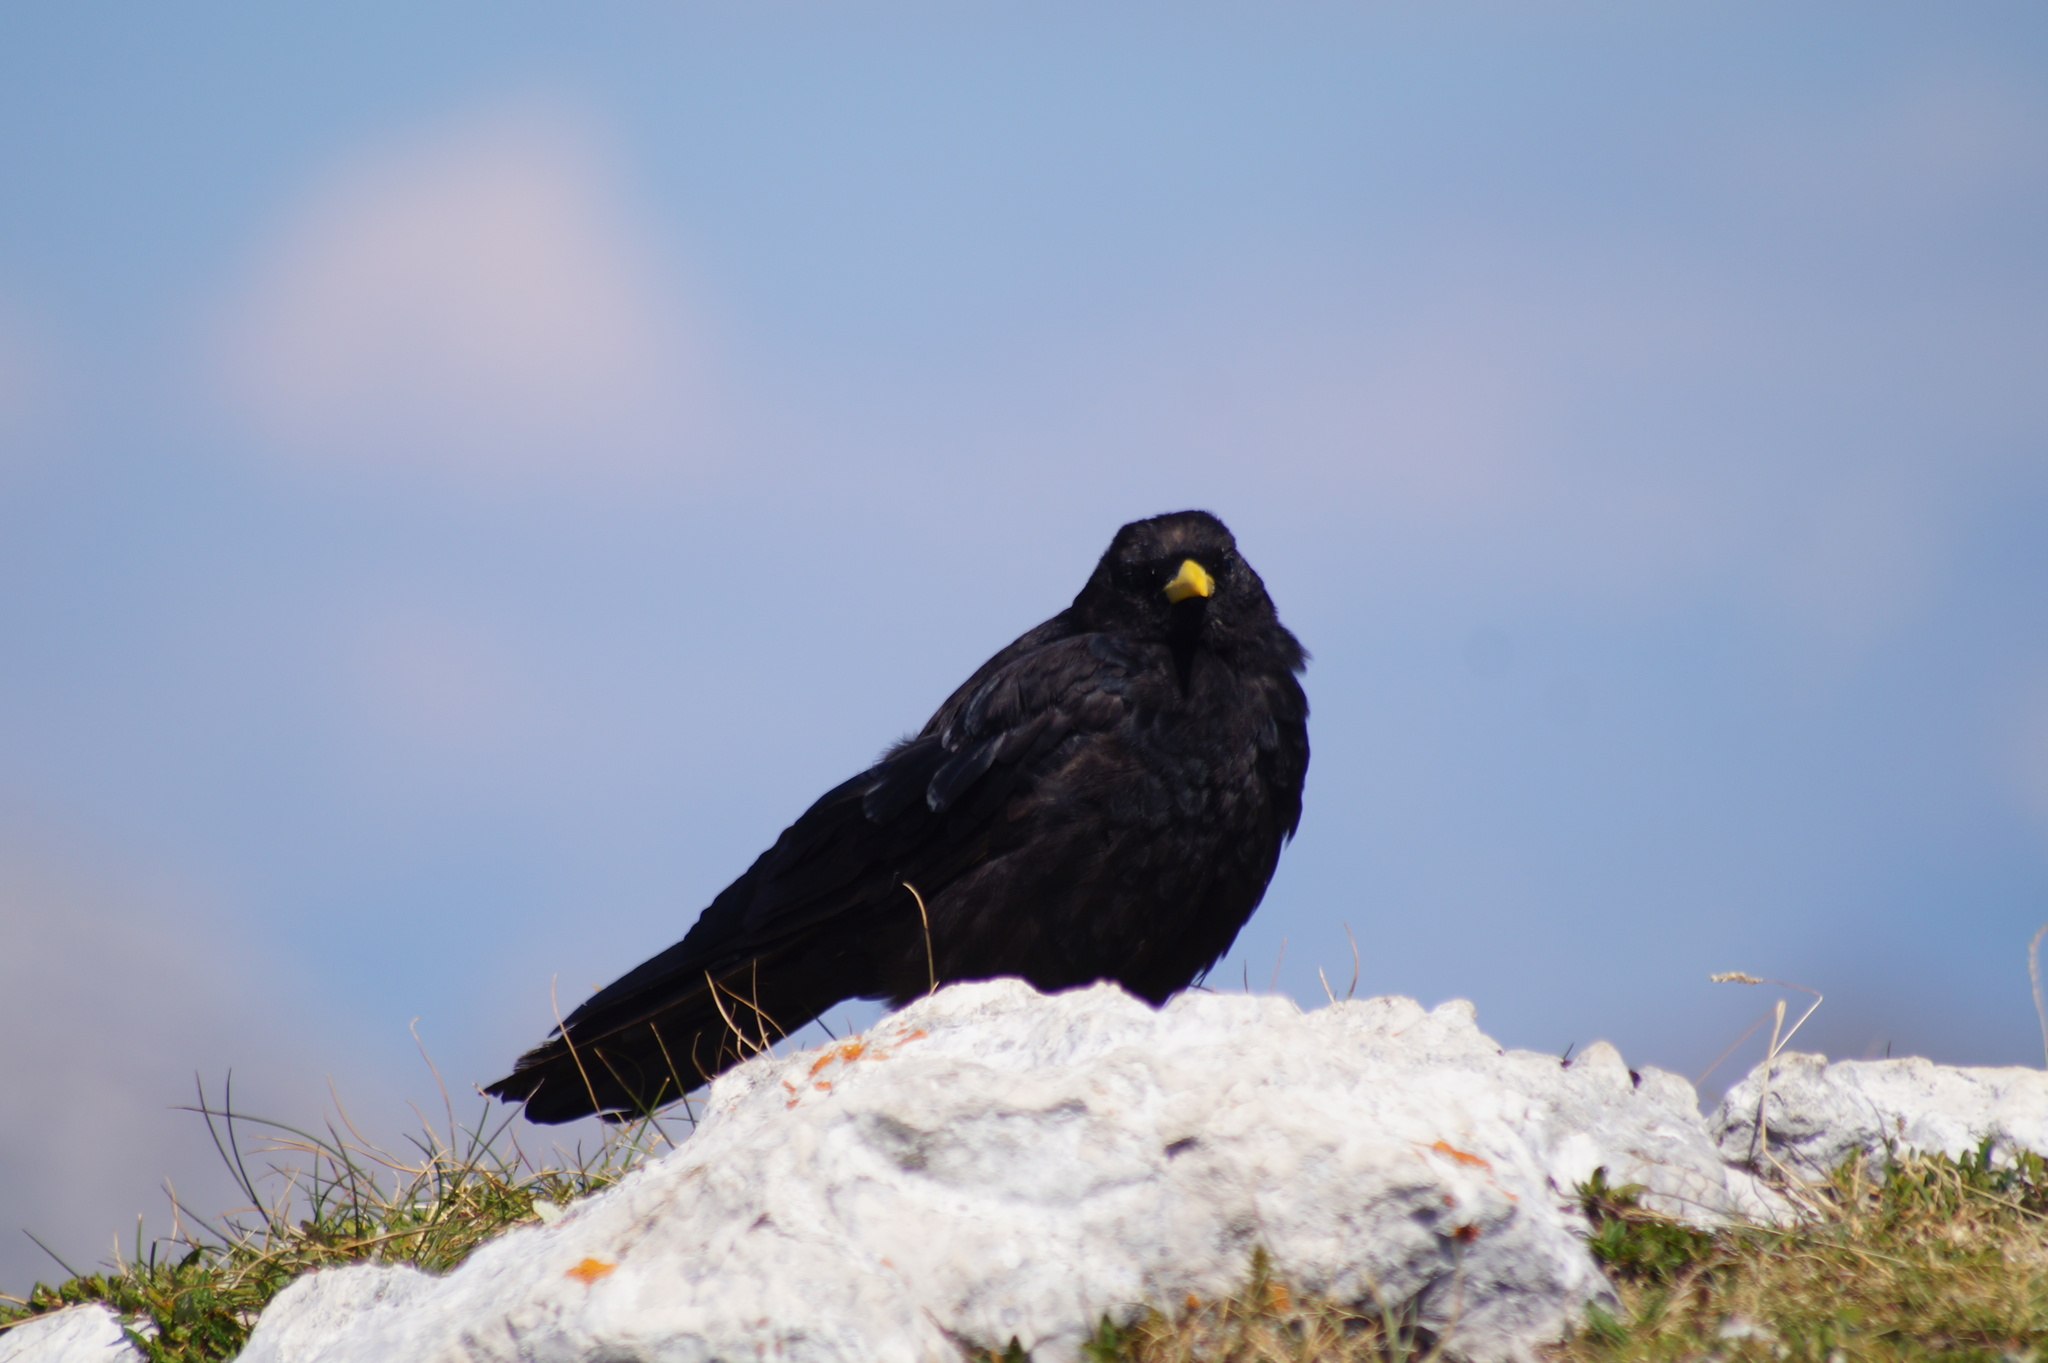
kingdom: Animalia
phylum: Chordata
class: Aves
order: Passeriformes
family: Corvidae
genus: Pyrrhocorax
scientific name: Pyrrhocorax graculus
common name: Alpine chough
